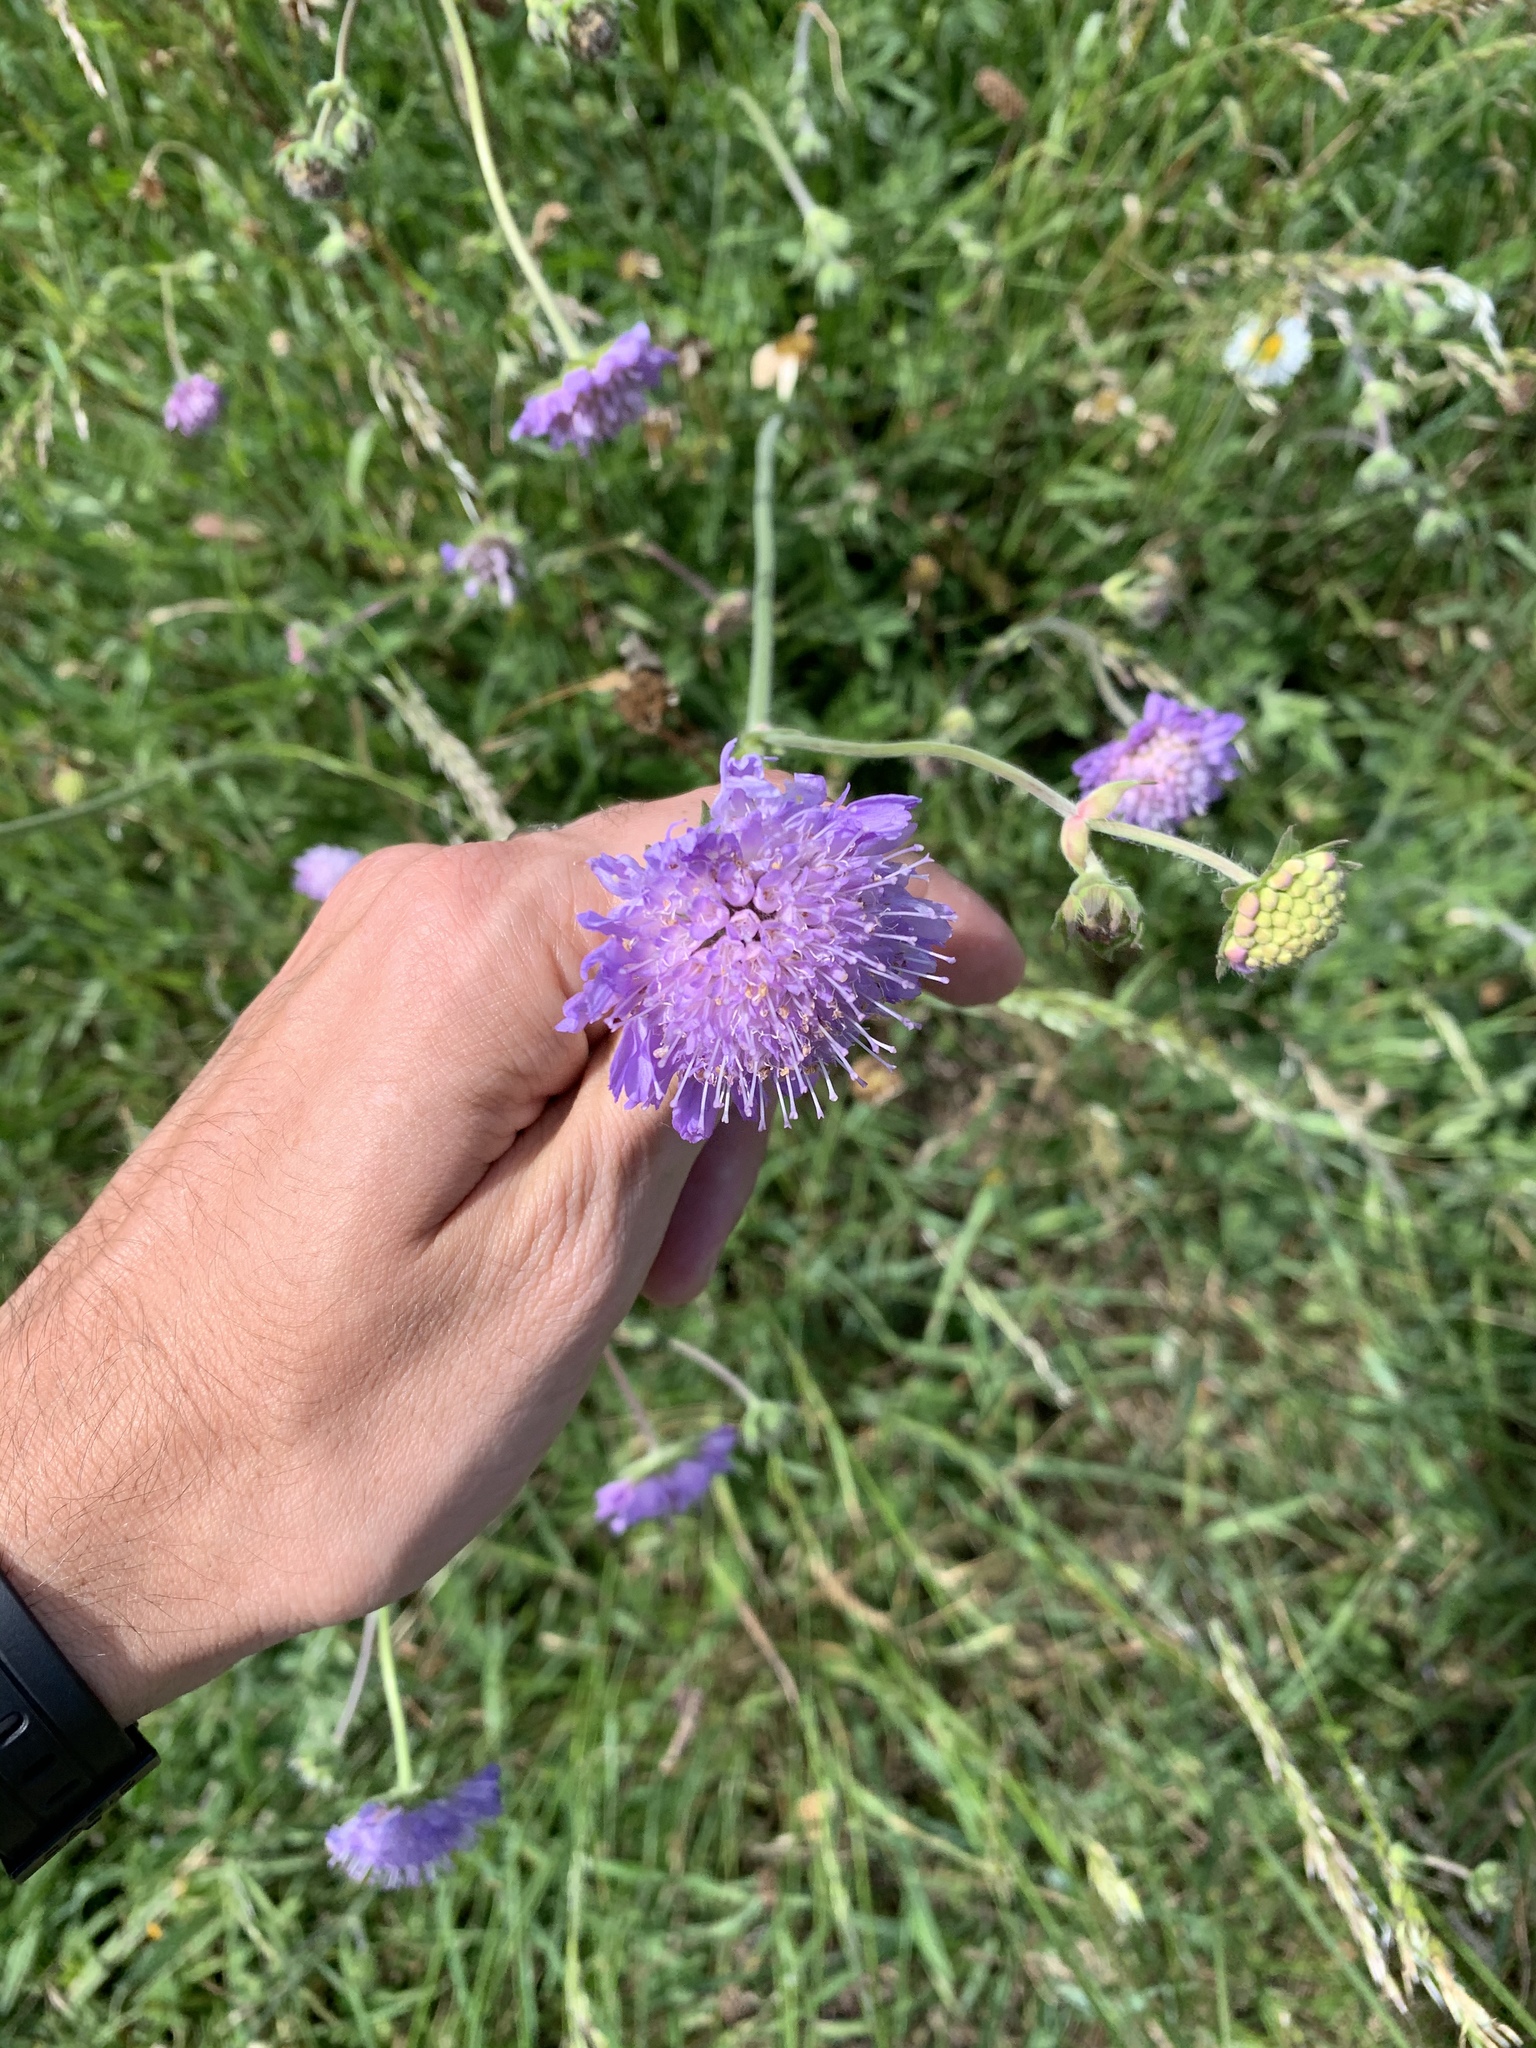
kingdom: Plantae
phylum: Tracheophyta
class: Magnoliopsida
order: Dipsacales
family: Caprifoliaceae
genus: Knautia
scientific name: Knautia arvensis
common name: Field scabiosa
